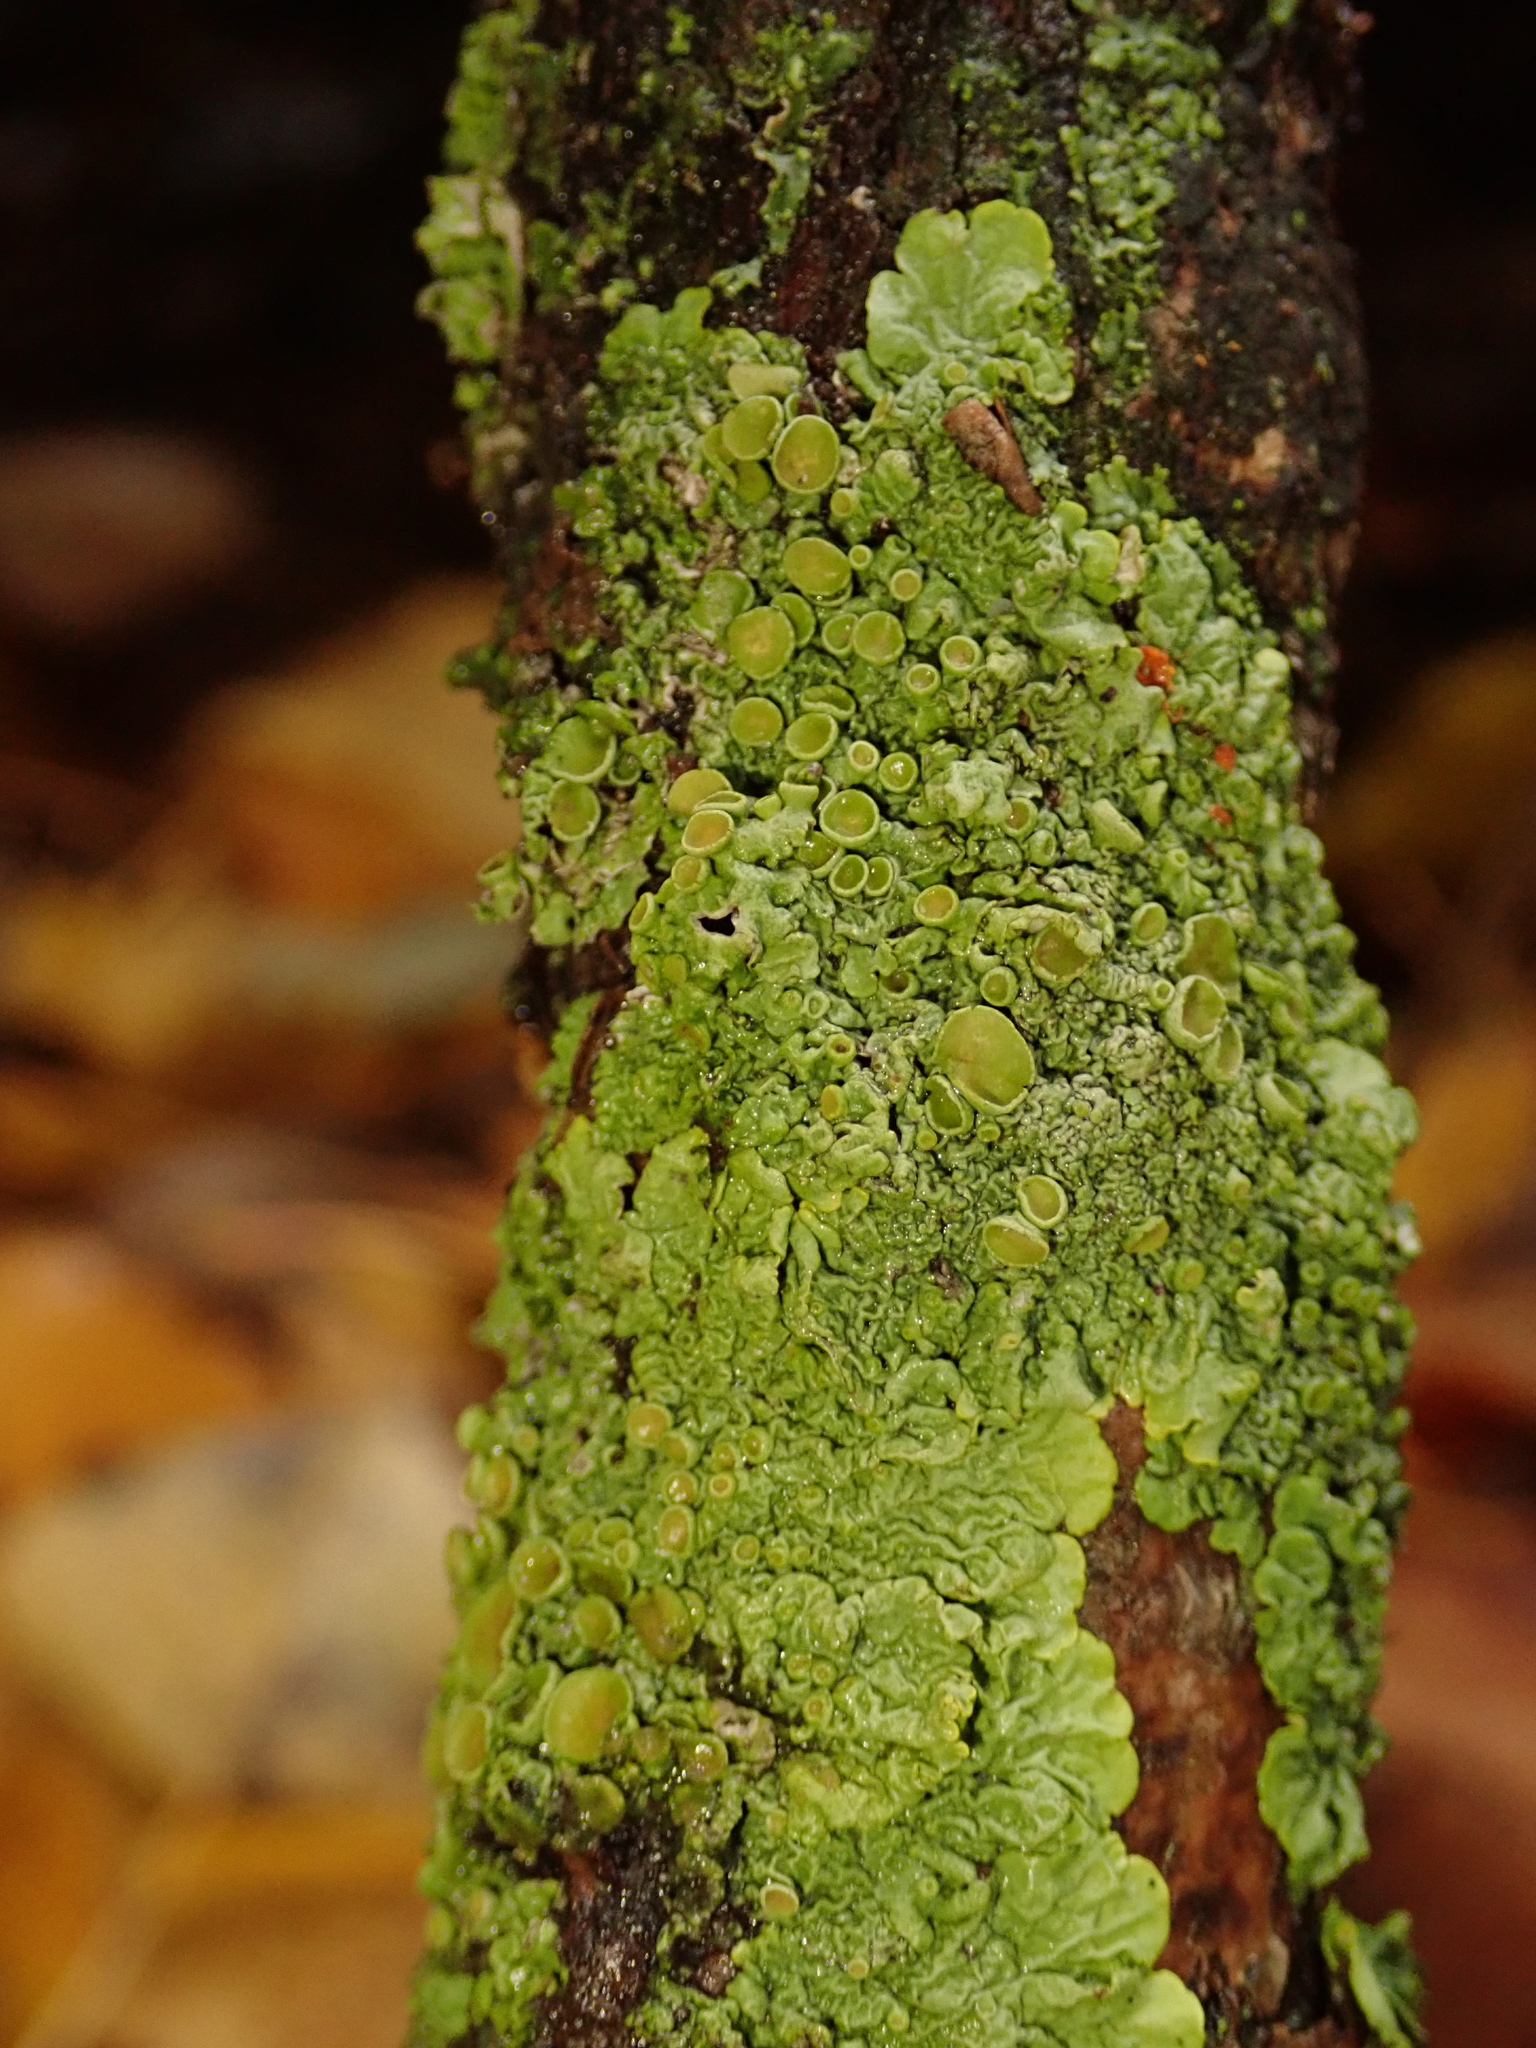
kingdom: Fungi
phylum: Ascomycota
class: Lecanoromycetes
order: Teloschistales
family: Teloschistaceae
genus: Xanthoria
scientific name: Xanthoria parietina
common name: Common orange lichen
